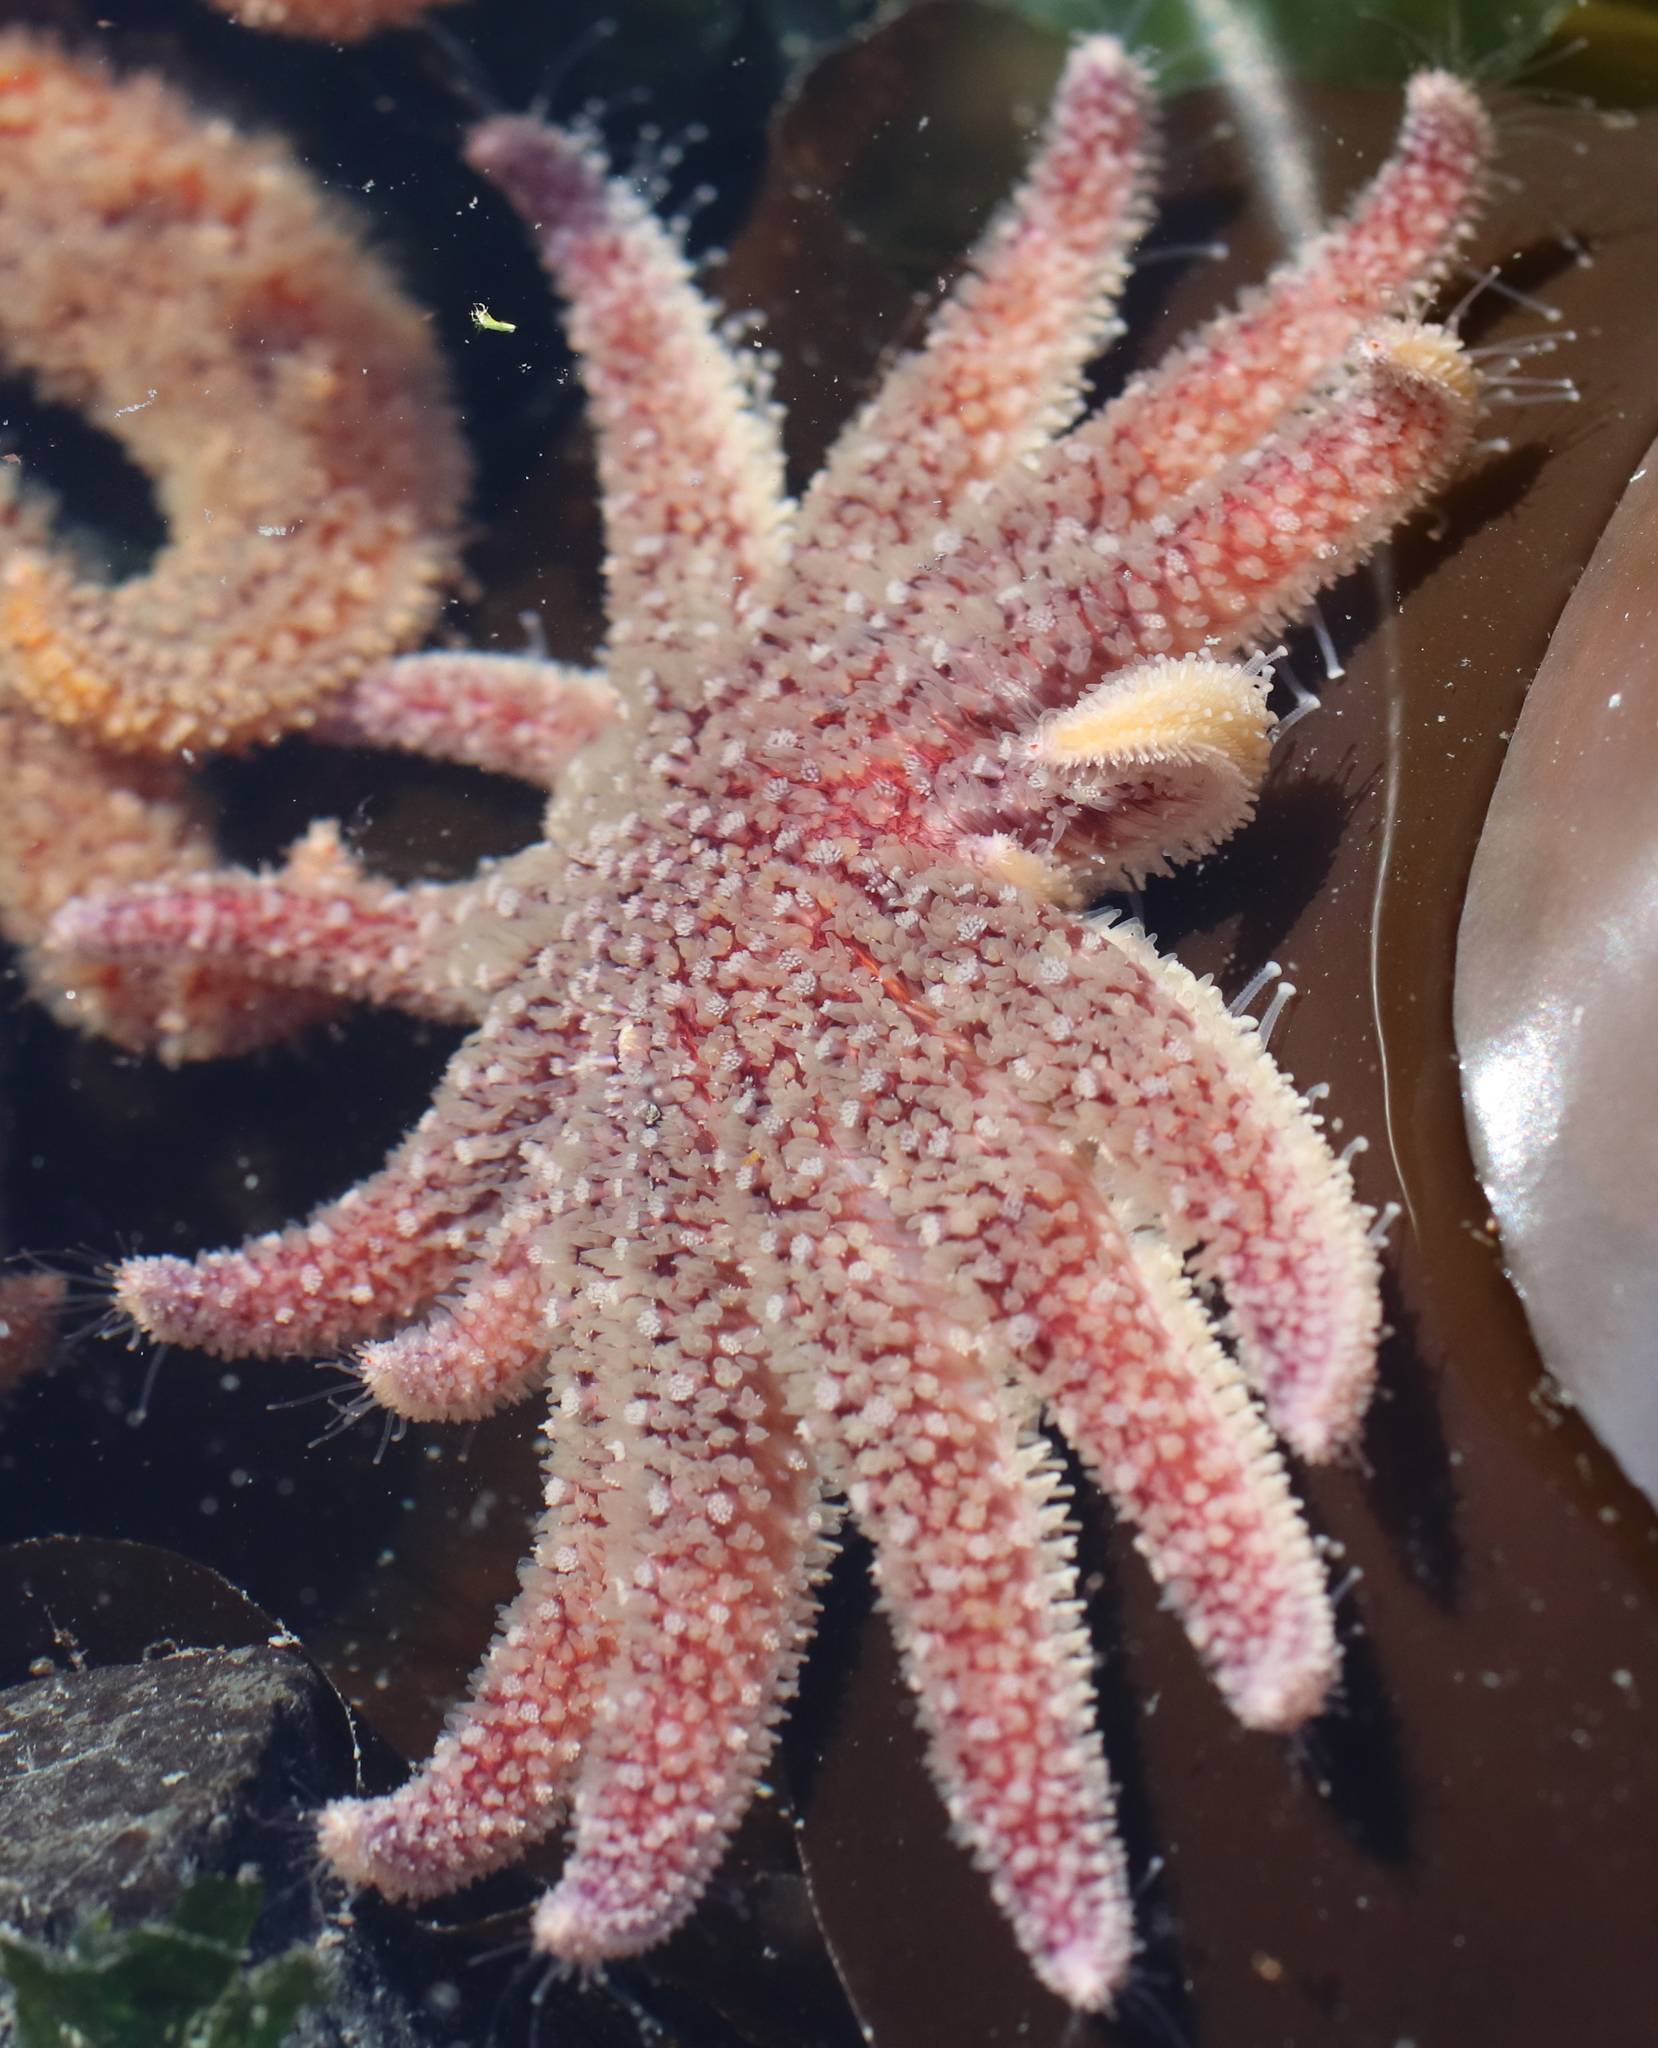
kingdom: Animalia
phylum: Echinodermata
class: Asteroidea
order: Forcipulatida
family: Asteriidae
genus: Pycnopodia
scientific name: Pycnopodia helianthoides
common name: Rag mop
